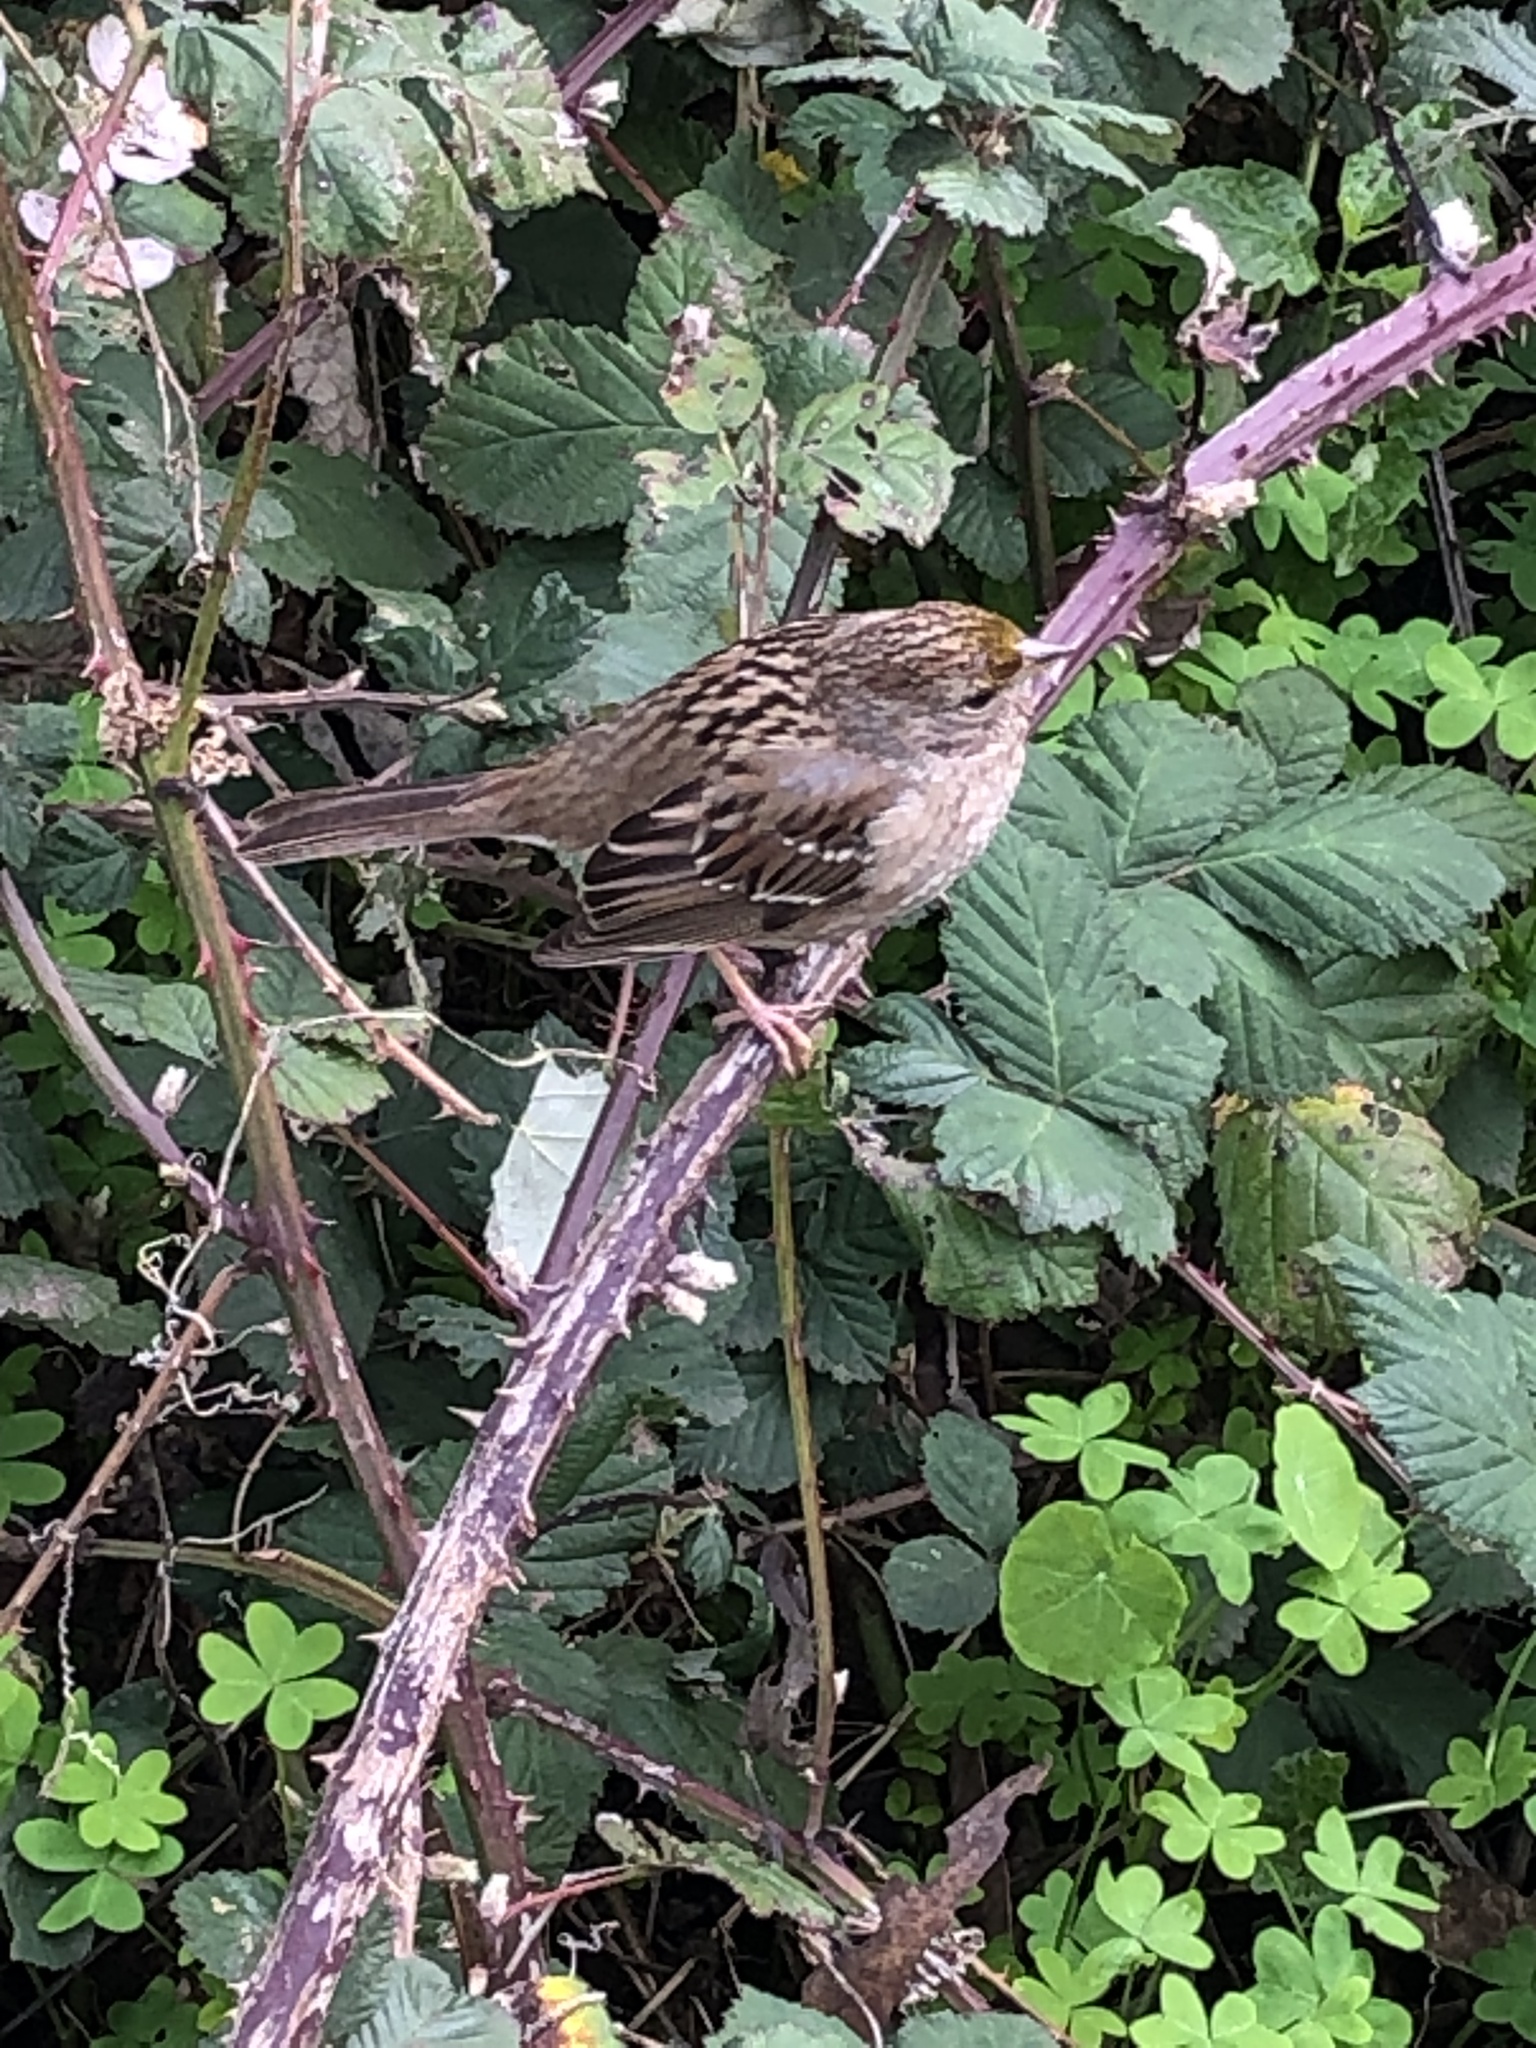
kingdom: Animalia
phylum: Chordata
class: Aves
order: Passeriformes
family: Passerellidae
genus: Zonotrichia
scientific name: Zonotrichia atricapilla
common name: Golden-crowned sparrow
